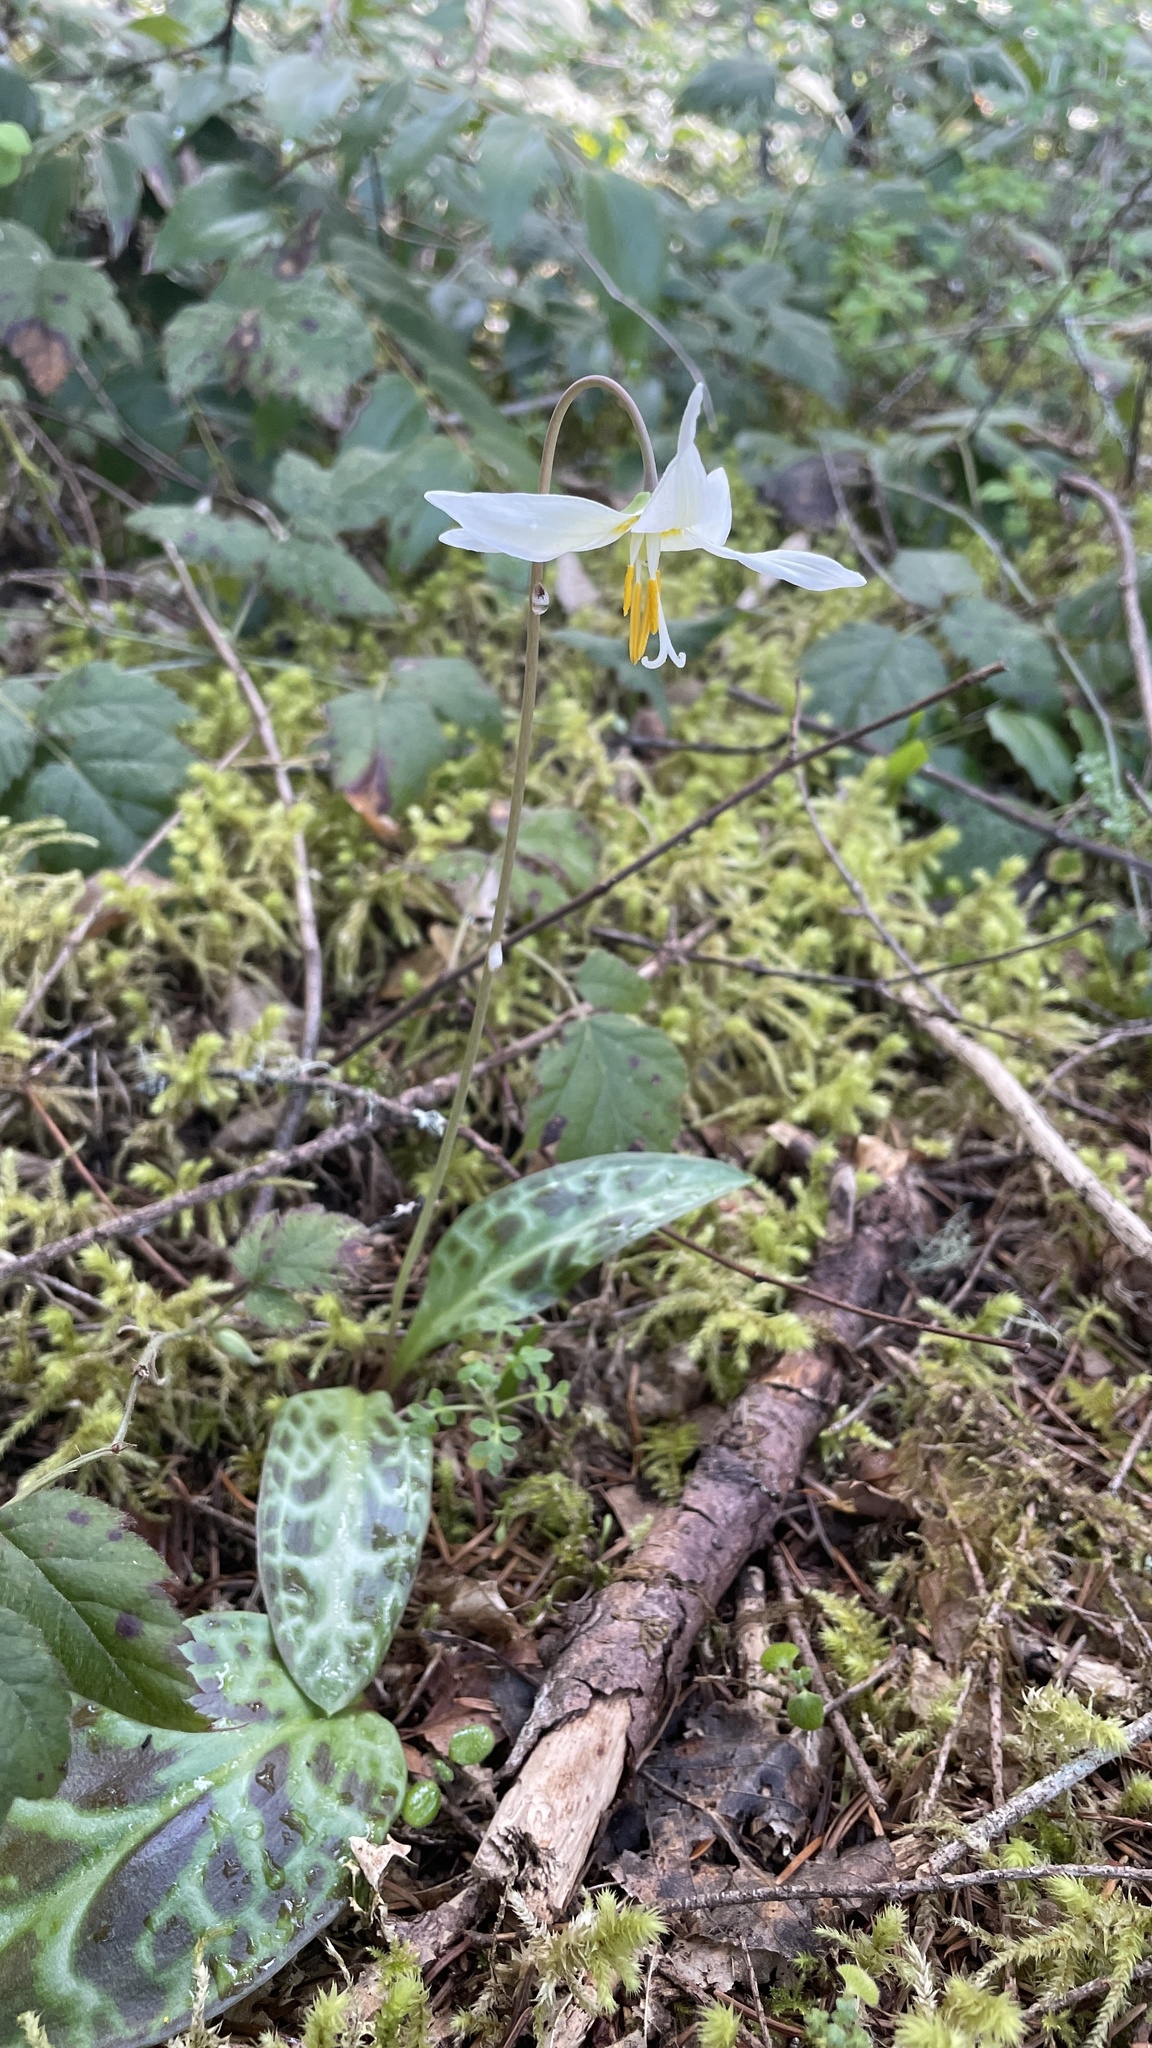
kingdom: Plantae
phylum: Tracheophyta
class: Liliopsida
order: Liliales
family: Liliaceae
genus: Erythronium
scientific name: Erythronium oregonum
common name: Giant adder's-tongue
